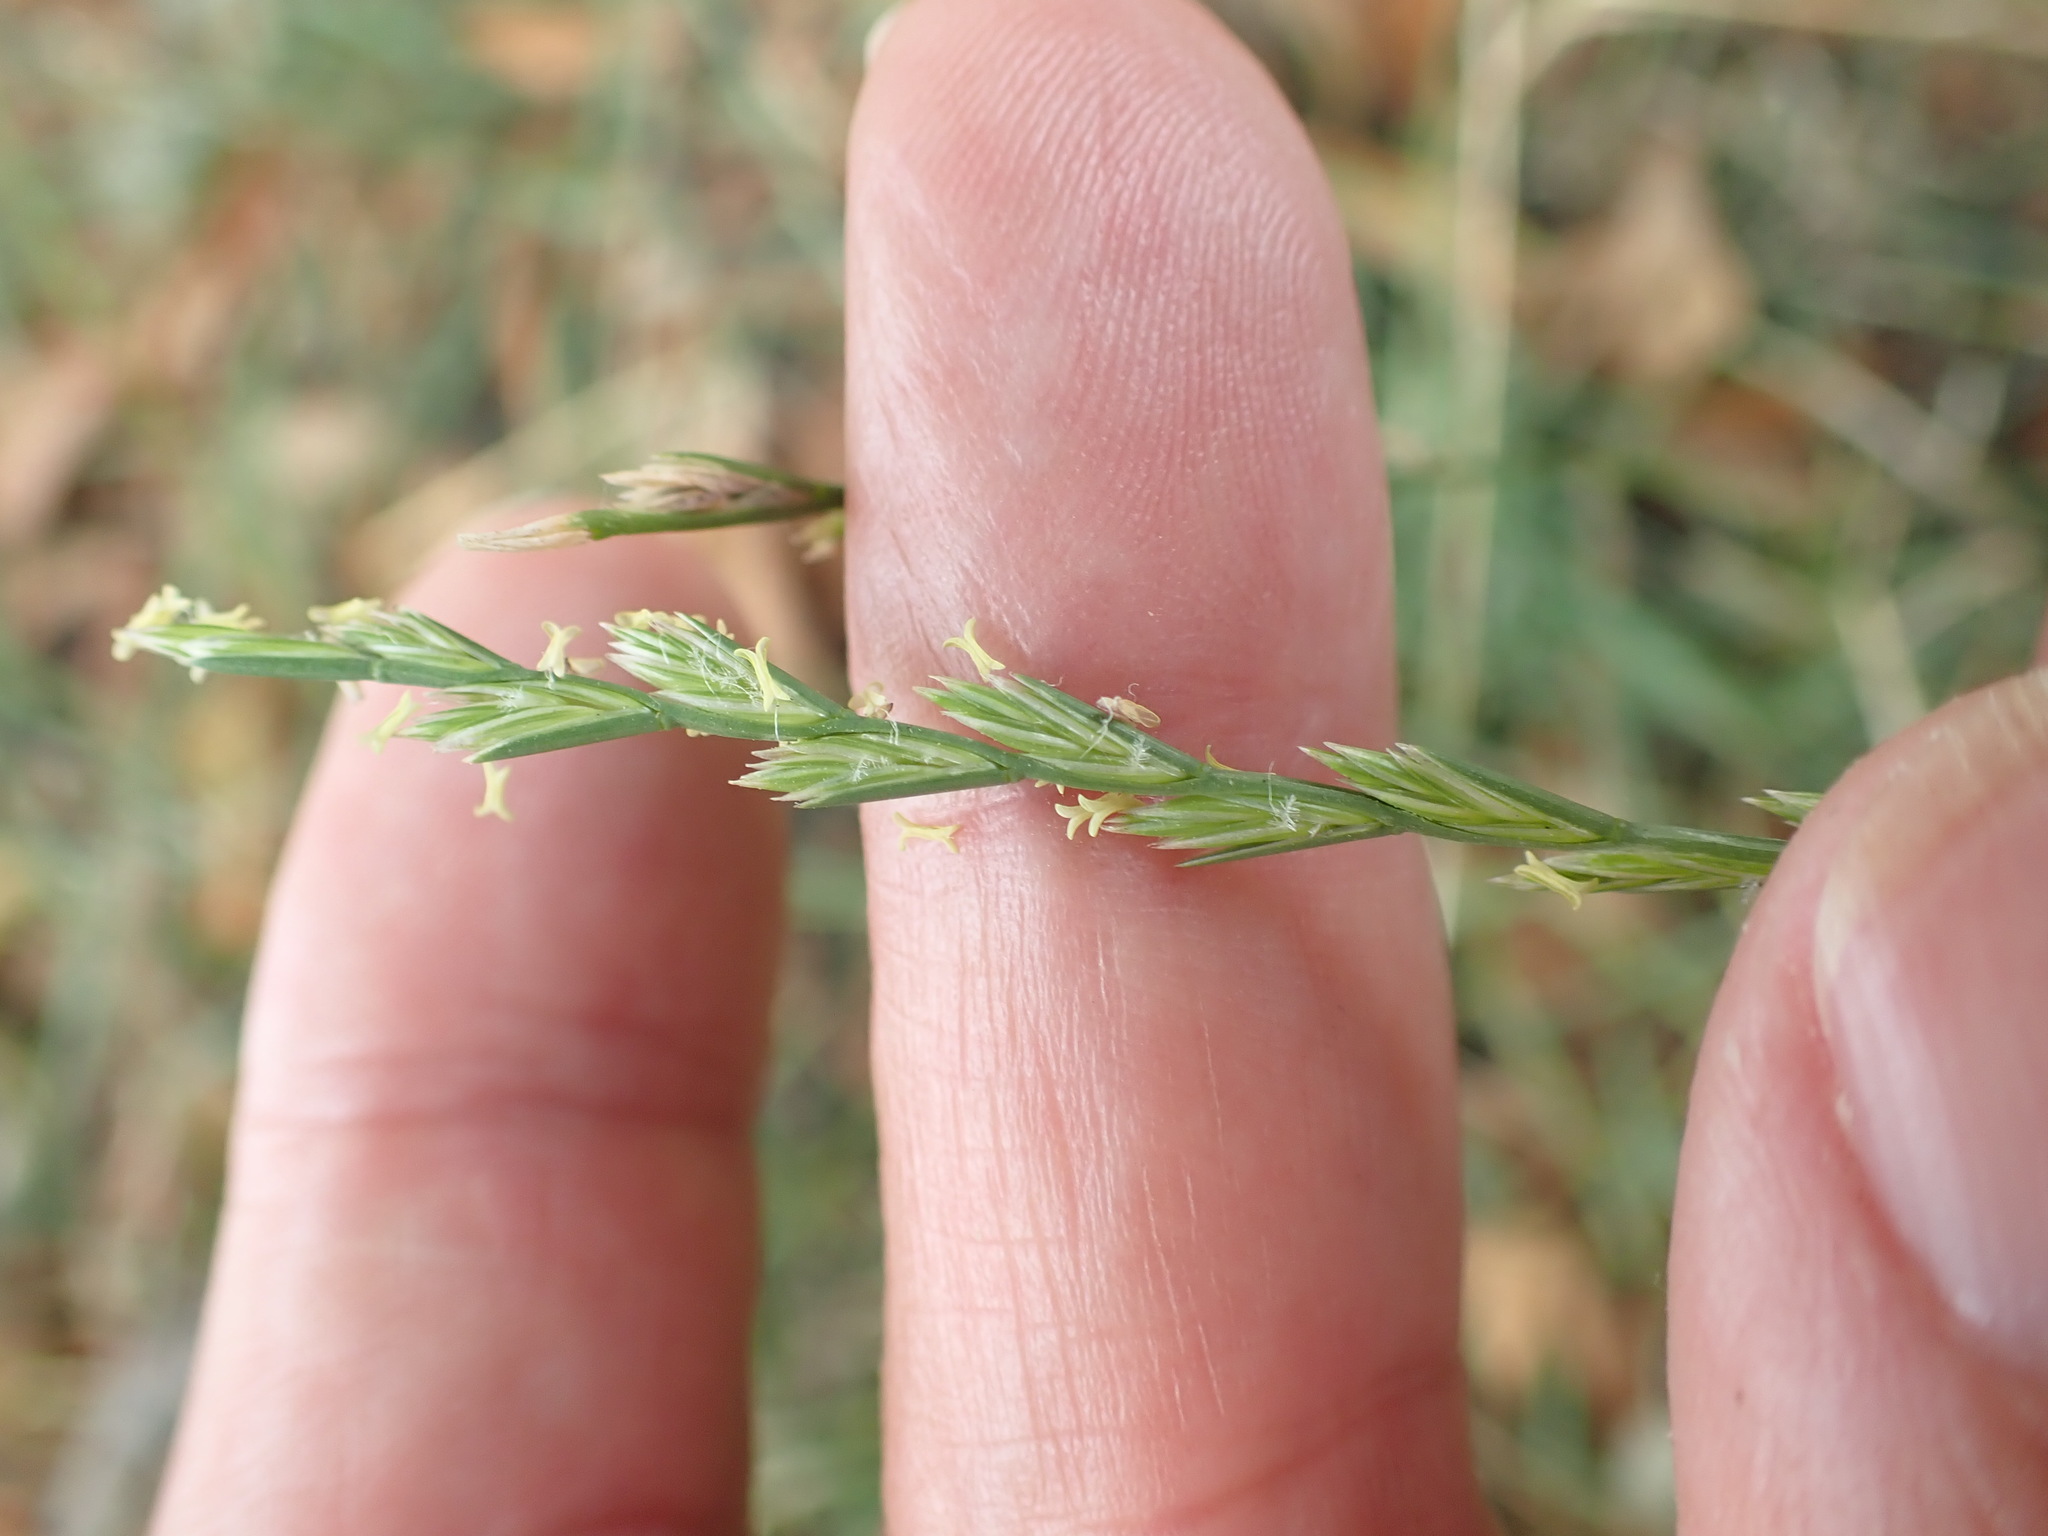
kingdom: Plantae
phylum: Tracheophyta
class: Liliopsida
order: Poales
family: Poaceae
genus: Lolium
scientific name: Lolium perenne
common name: Perennial ryegrass
